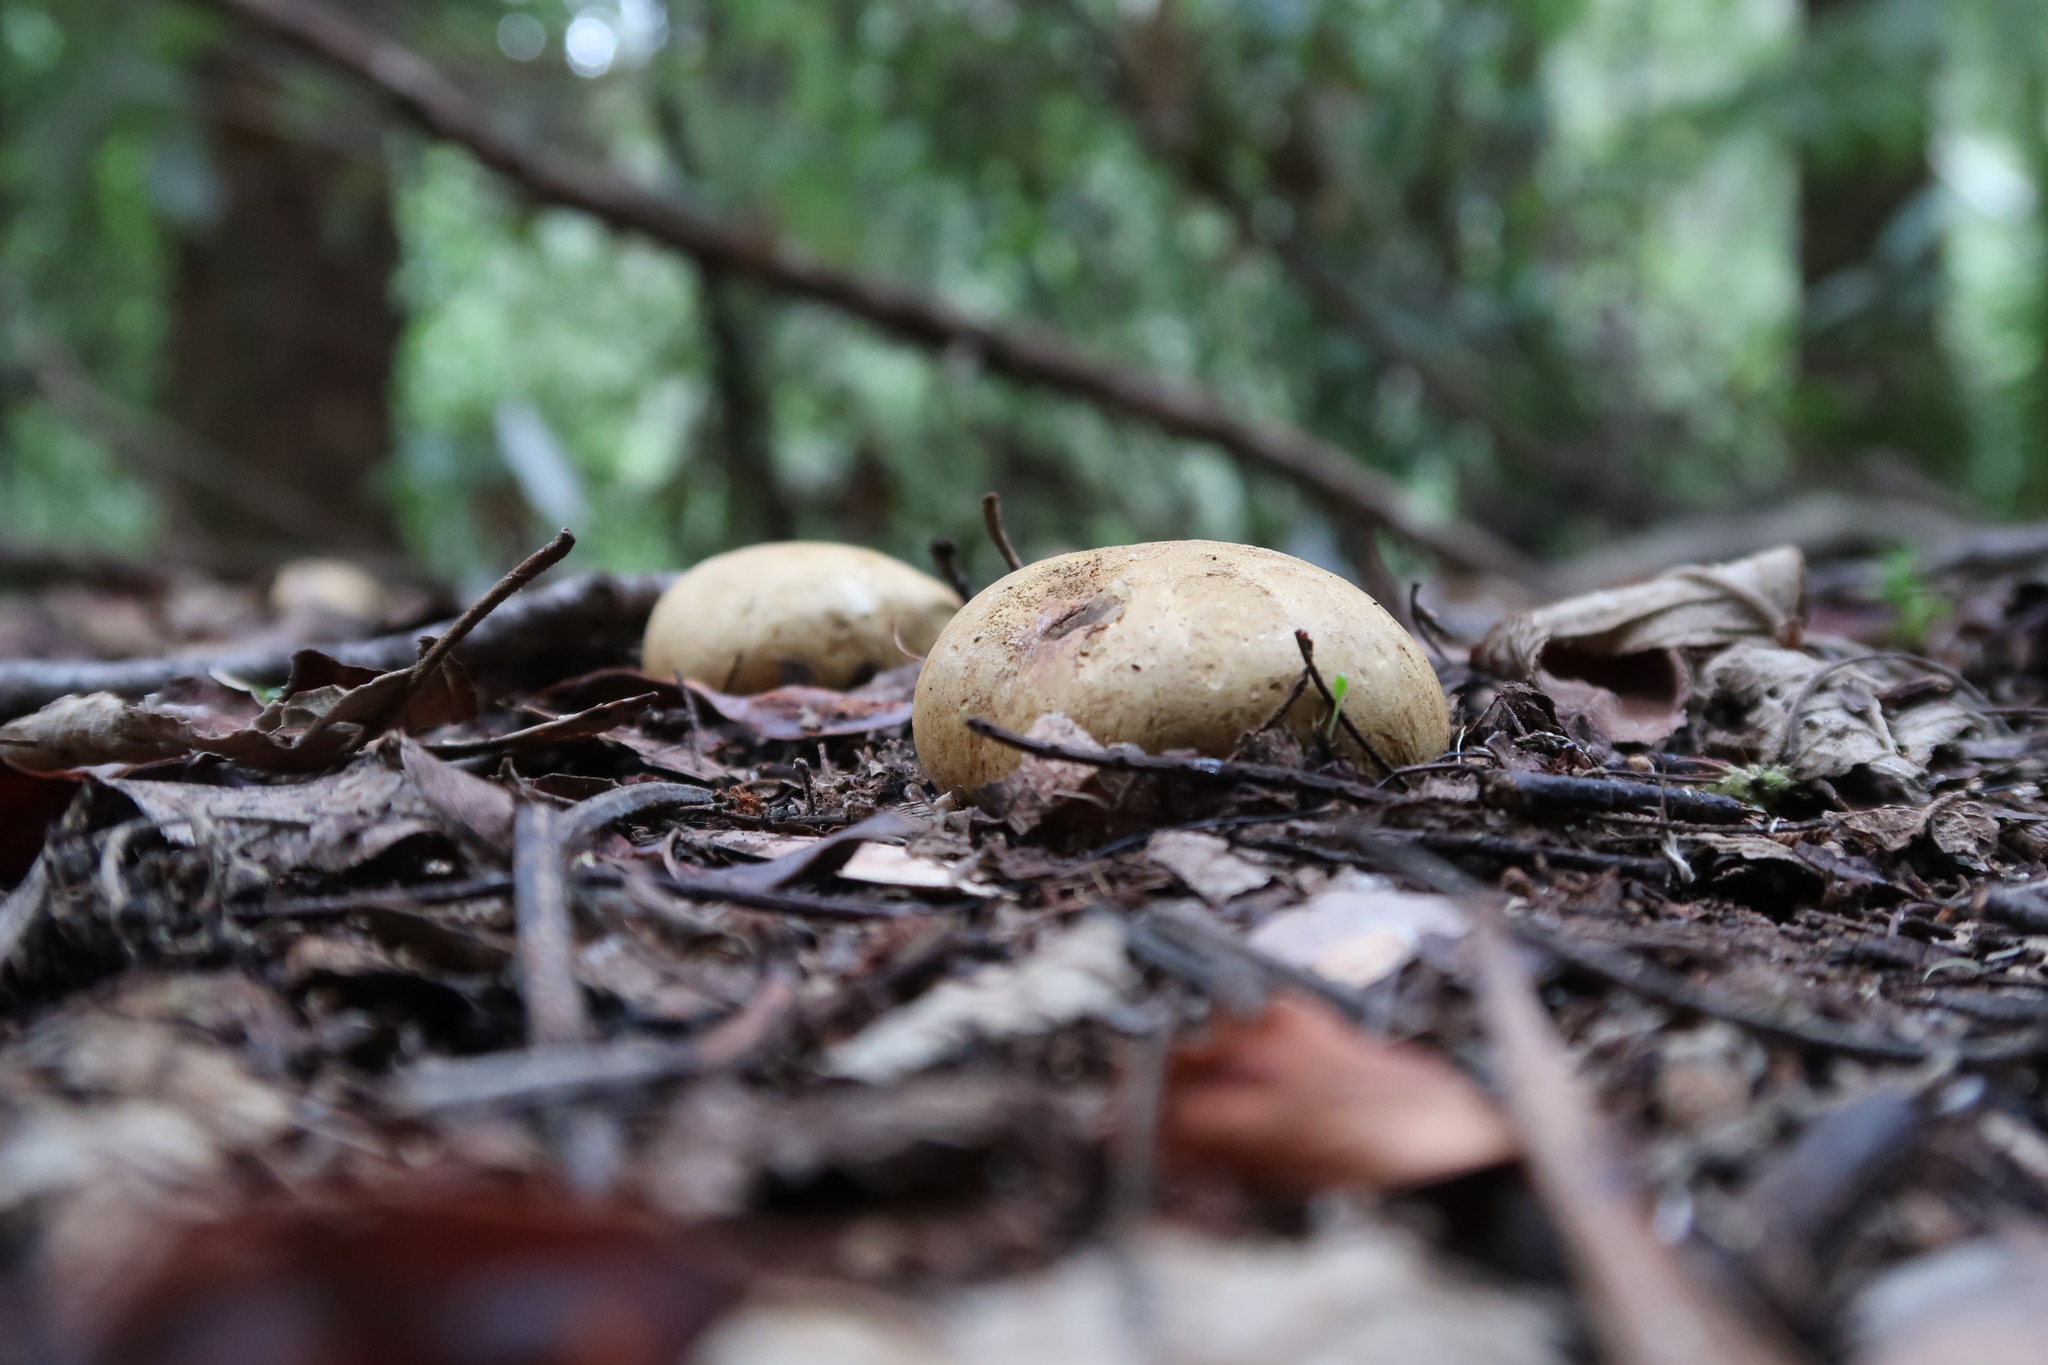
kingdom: Fungi
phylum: Basidiomycota
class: Agaricomycetes
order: Boletales
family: Sclerodermataceae
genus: Scleroderma
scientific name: Scleroderma cepa
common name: Onion earthball
